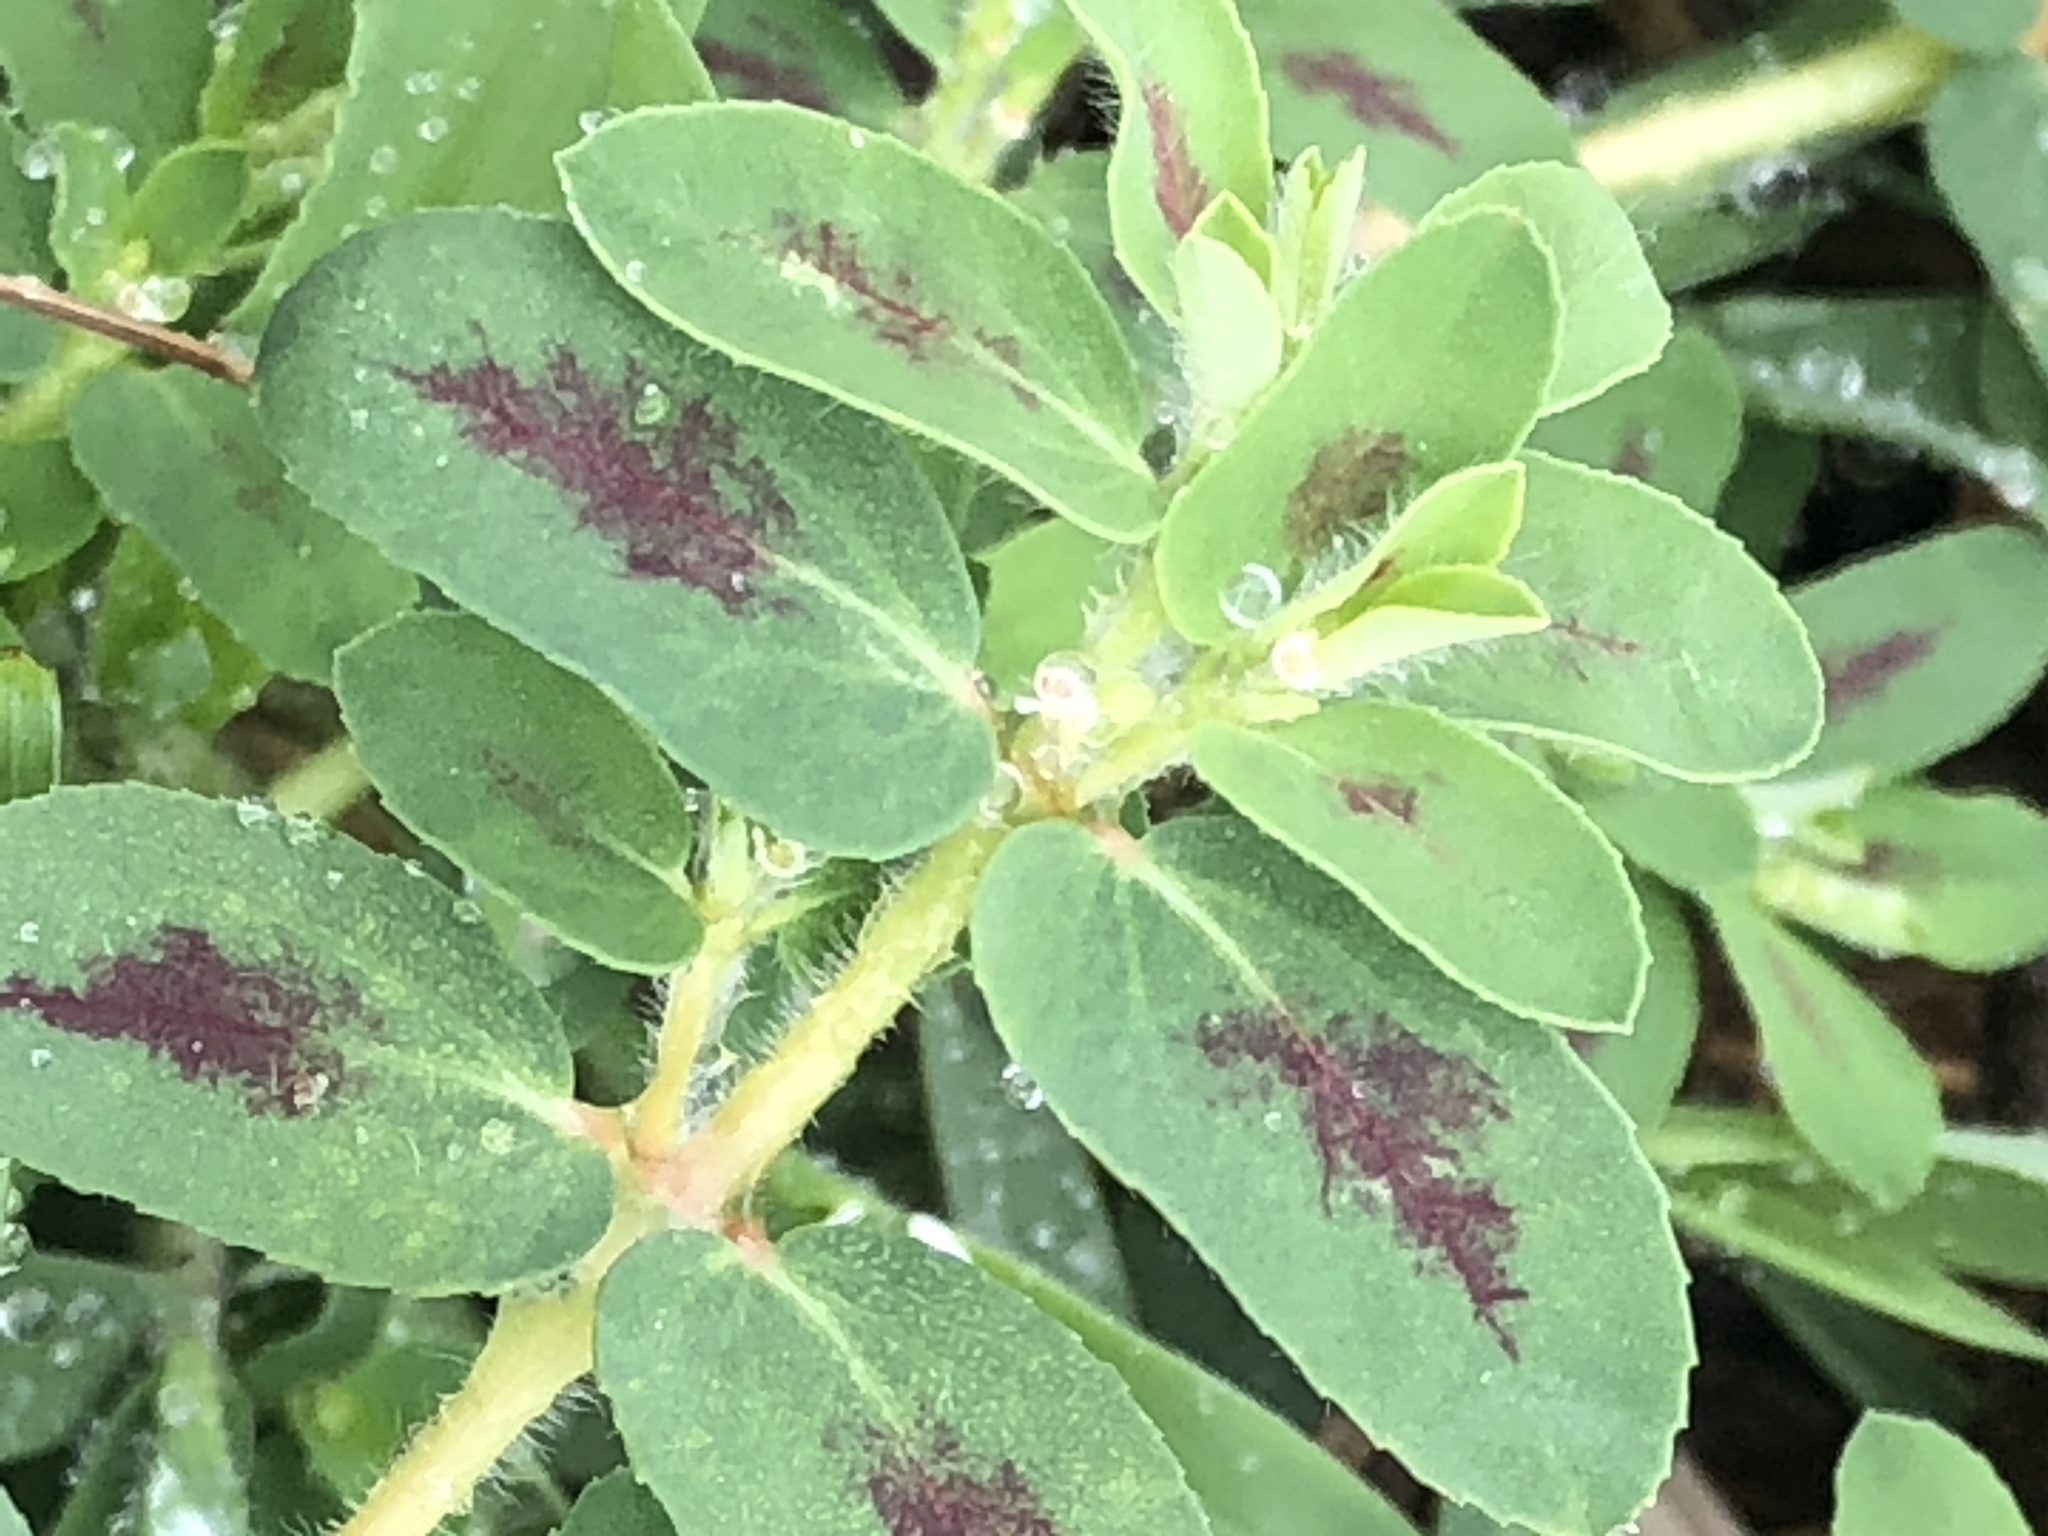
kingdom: Plantae
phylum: Tracheophyta
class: Magnoliopsida
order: Malpighiales
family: Euphorbiaceae
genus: Euphorbia
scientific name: Euphorbia maculata
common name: Spotted spurge
